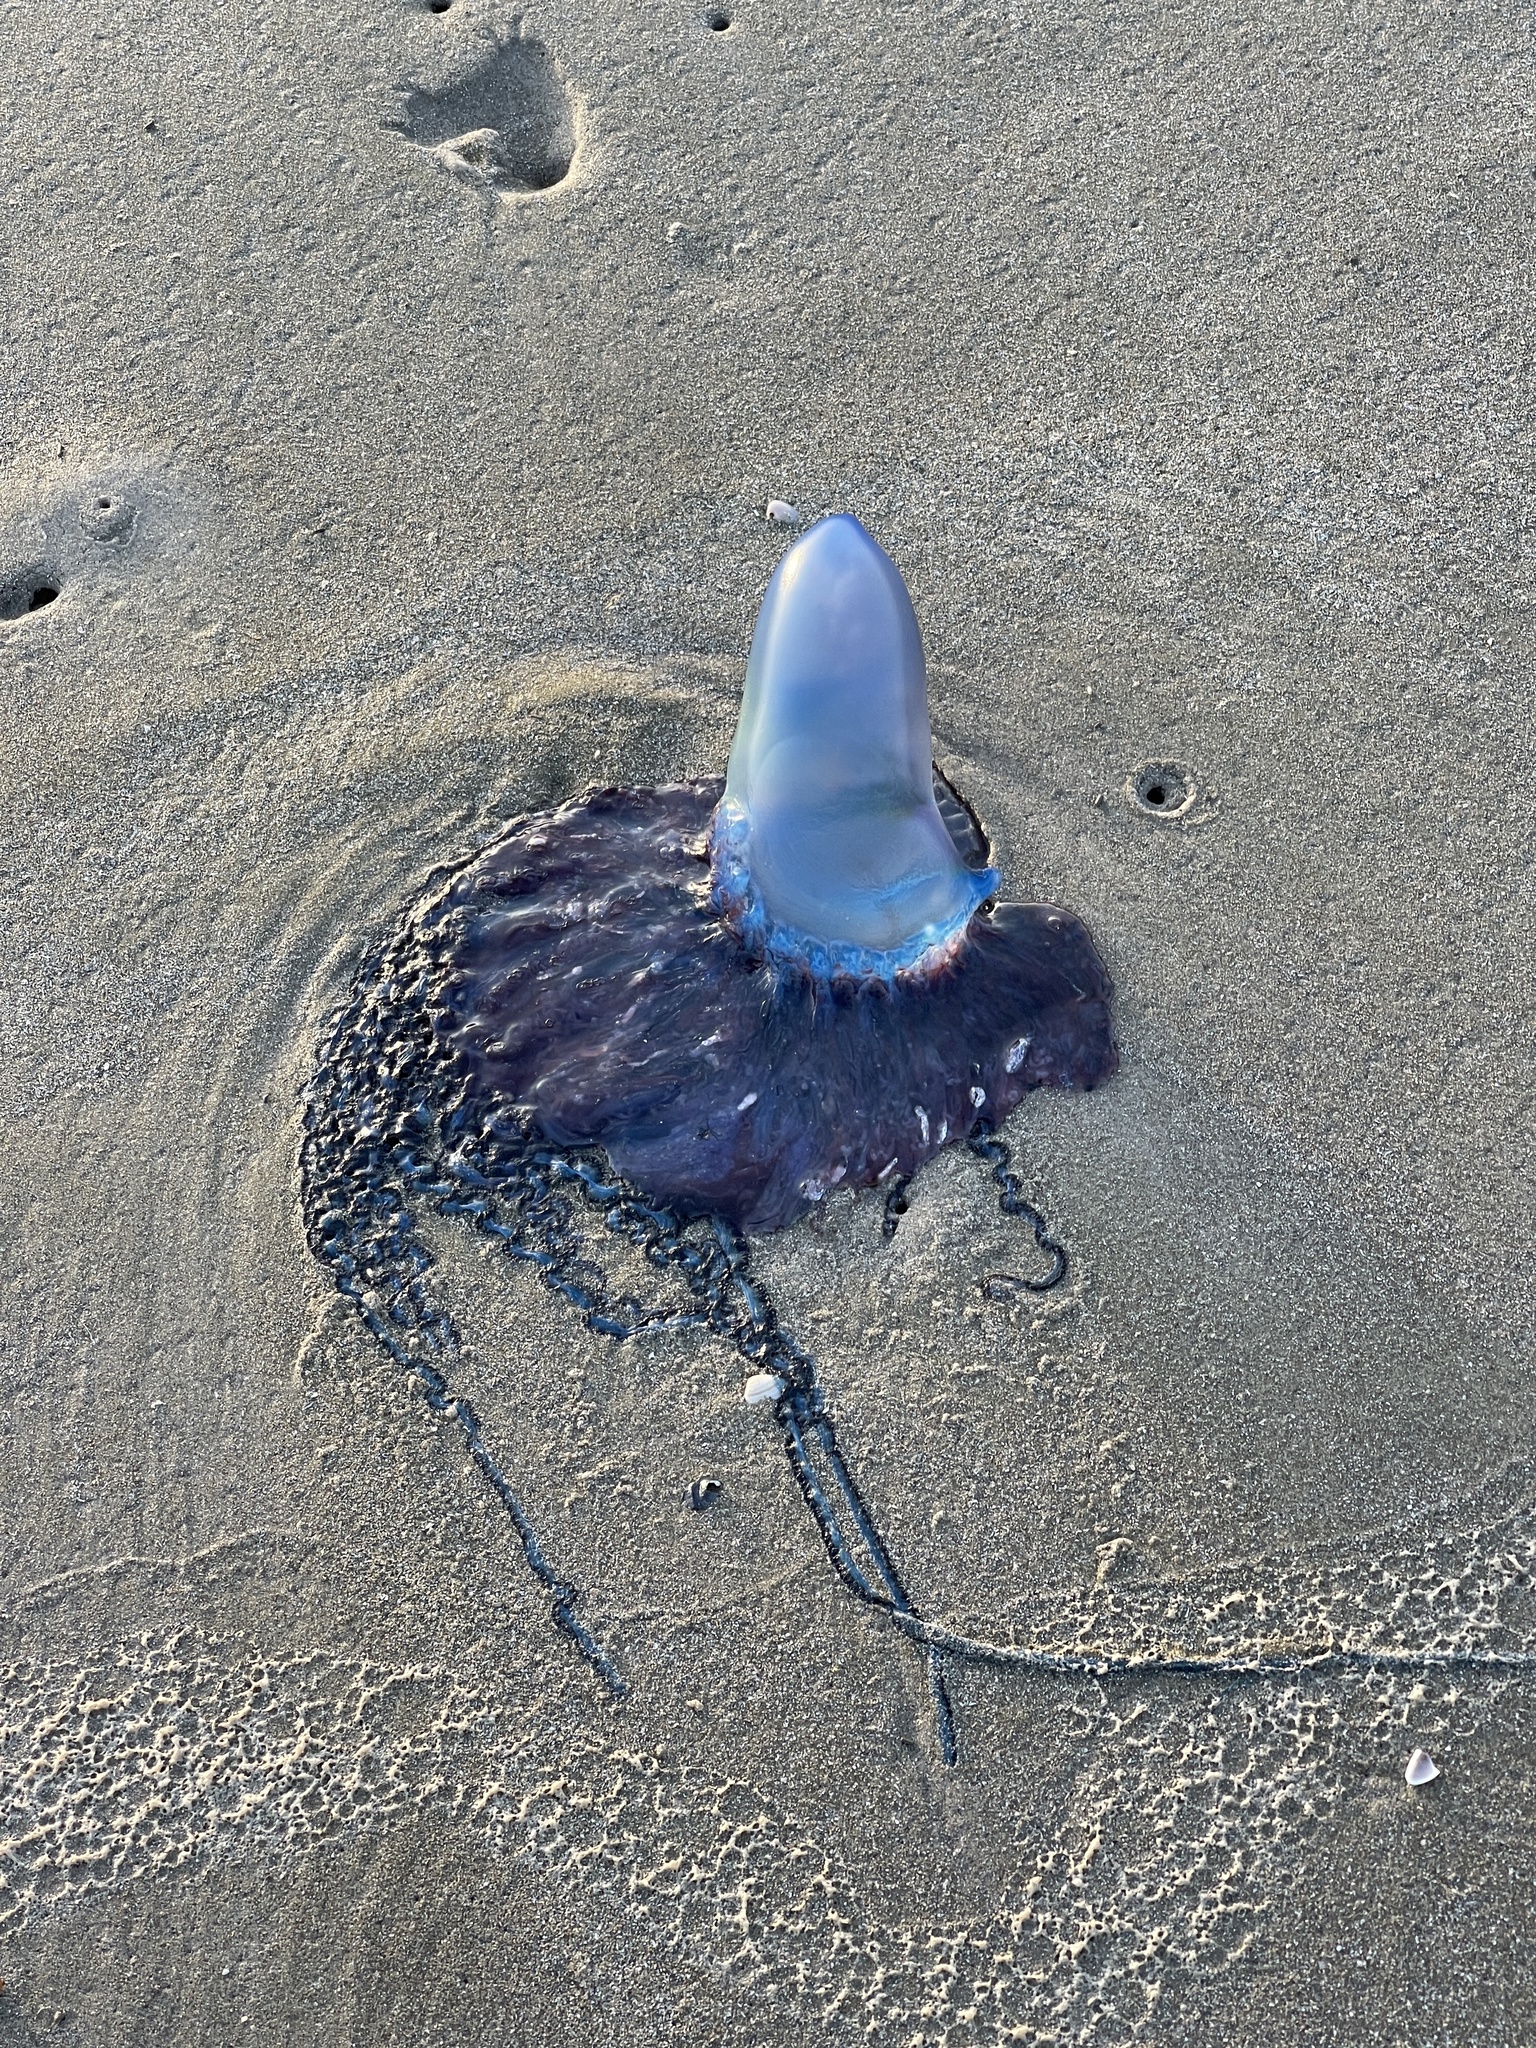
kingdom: Animalia
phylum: Cnidaria
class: Hydrozoa
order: Siphonophorae
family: Physaliidae
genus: Physalia
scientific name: Physalia physalis
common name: Portuguese man-of-war
